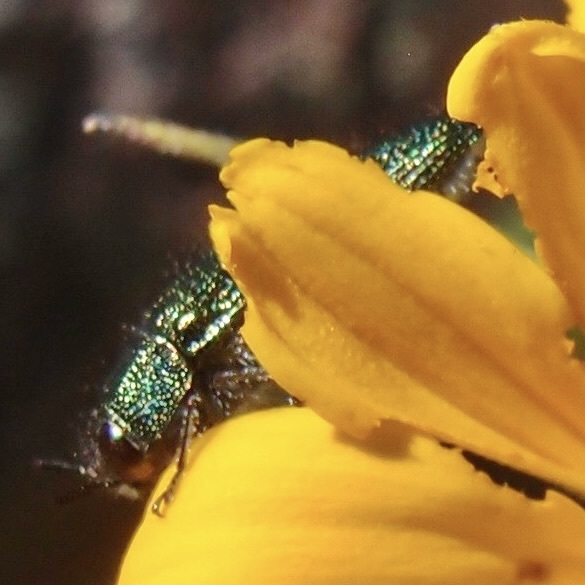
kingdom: Animalia
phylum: Arthropoda
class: Insecta
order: Coleoptera
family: Buprestidae
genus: Acmaeodera
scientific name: Acmaeodera resplendens
